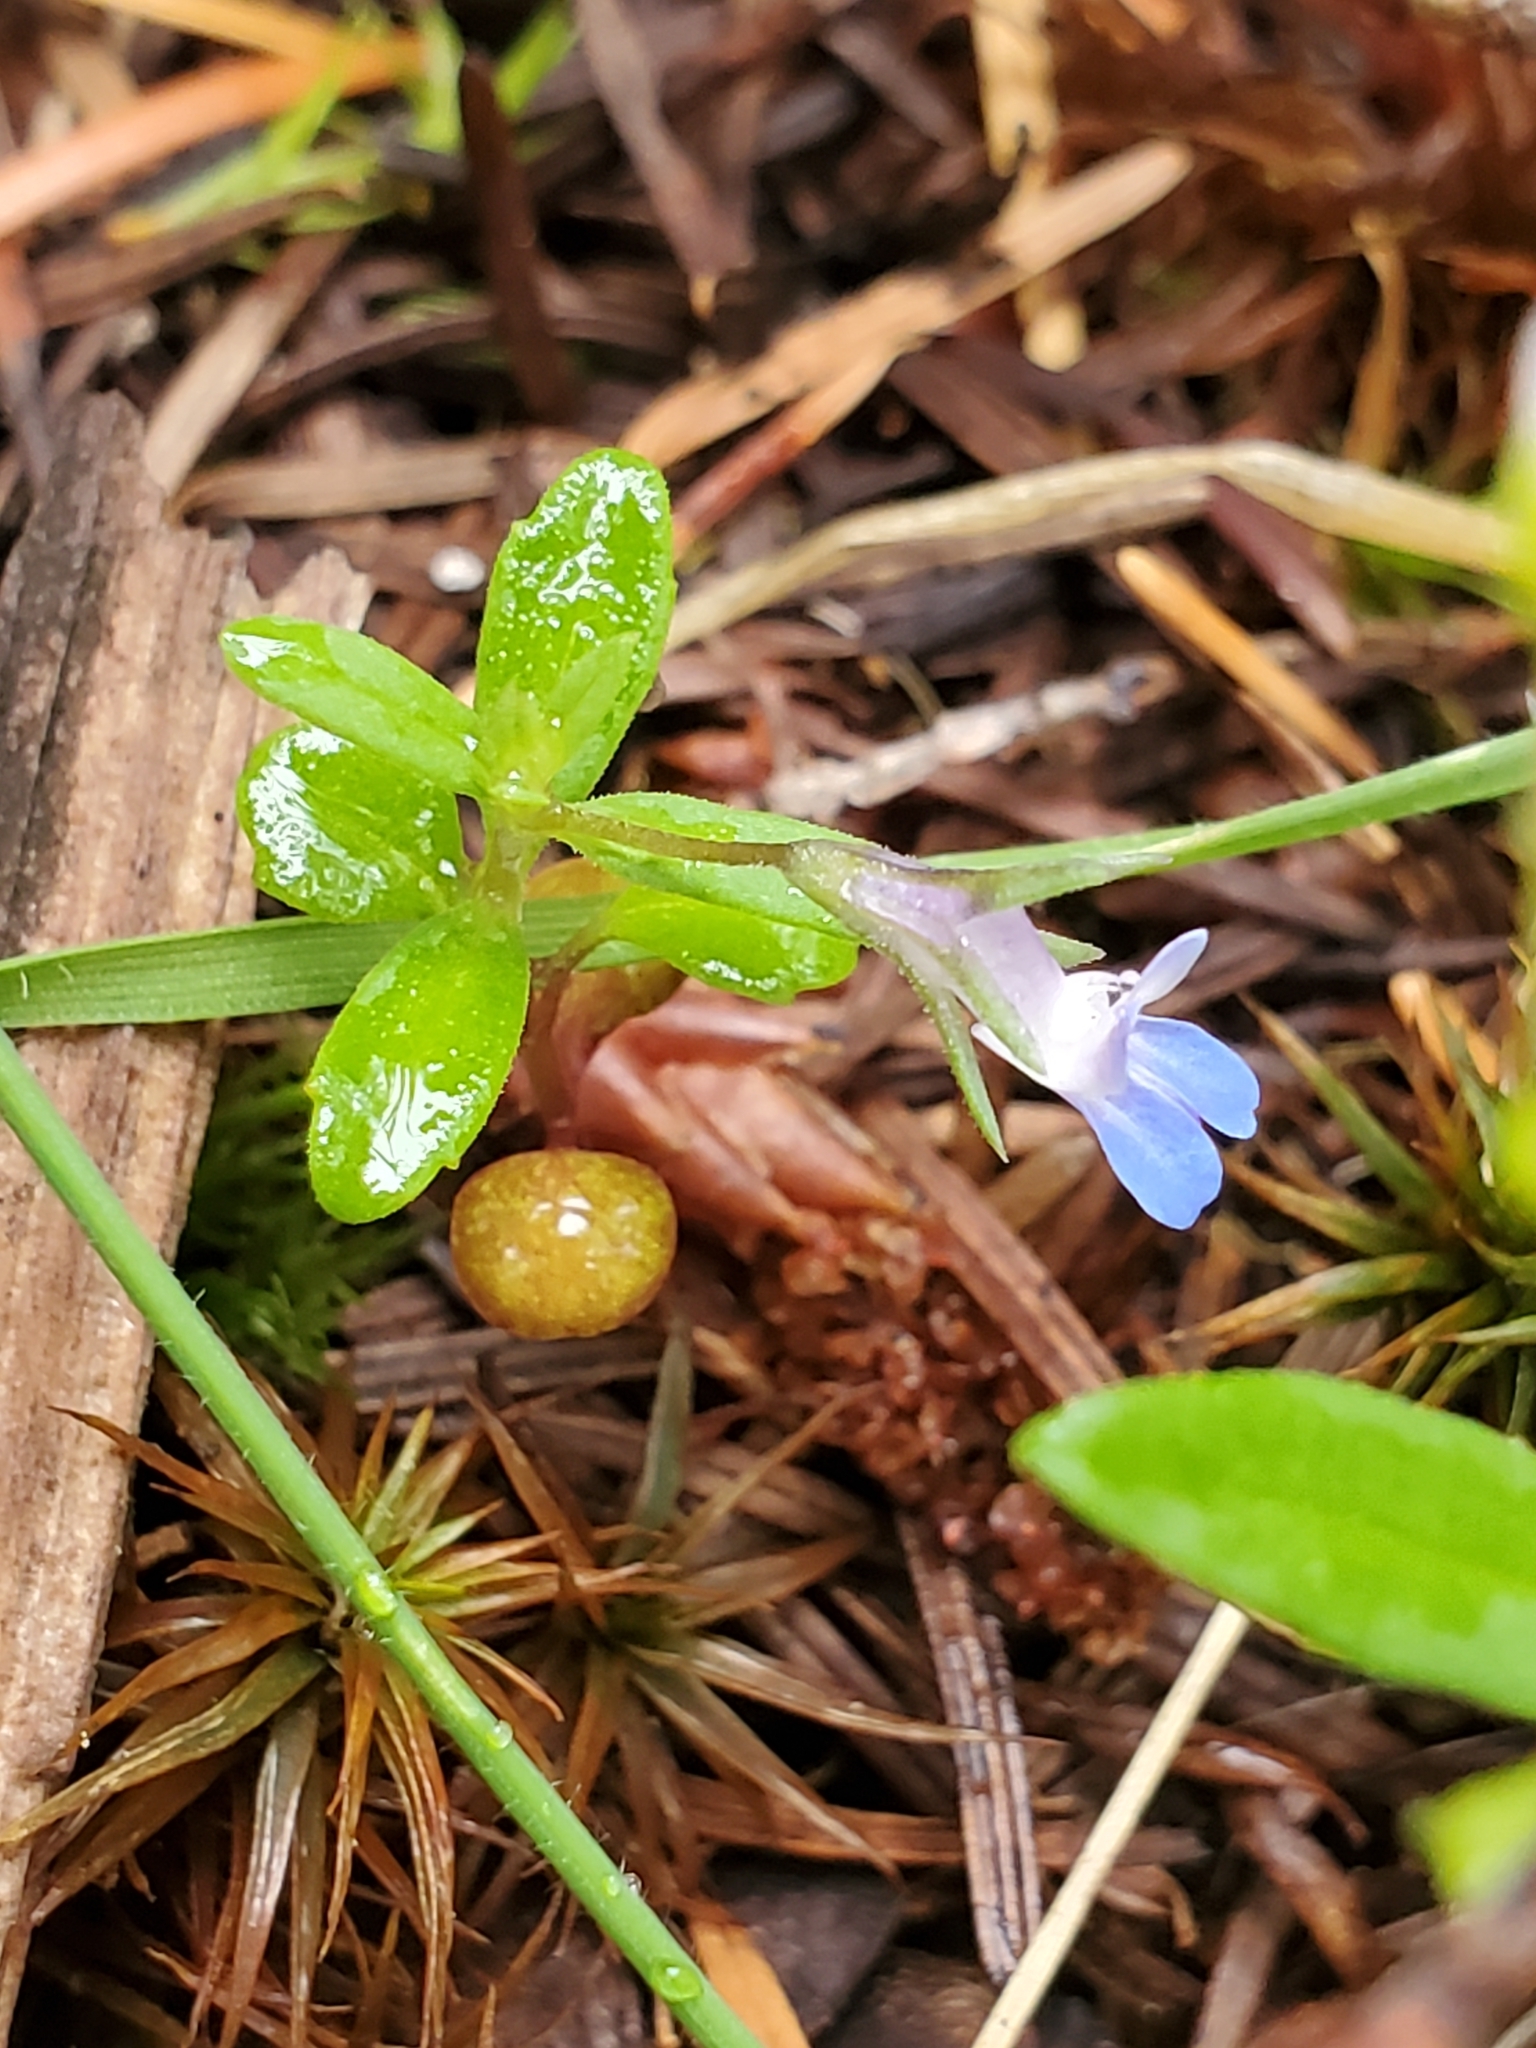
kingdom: Plantae
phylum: Tracheophyta
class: Magnoliopsida
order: Lamiales
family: Plantaginaceae
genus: Collinsia
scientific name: Collinsia parviflora
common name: Blue-lips
